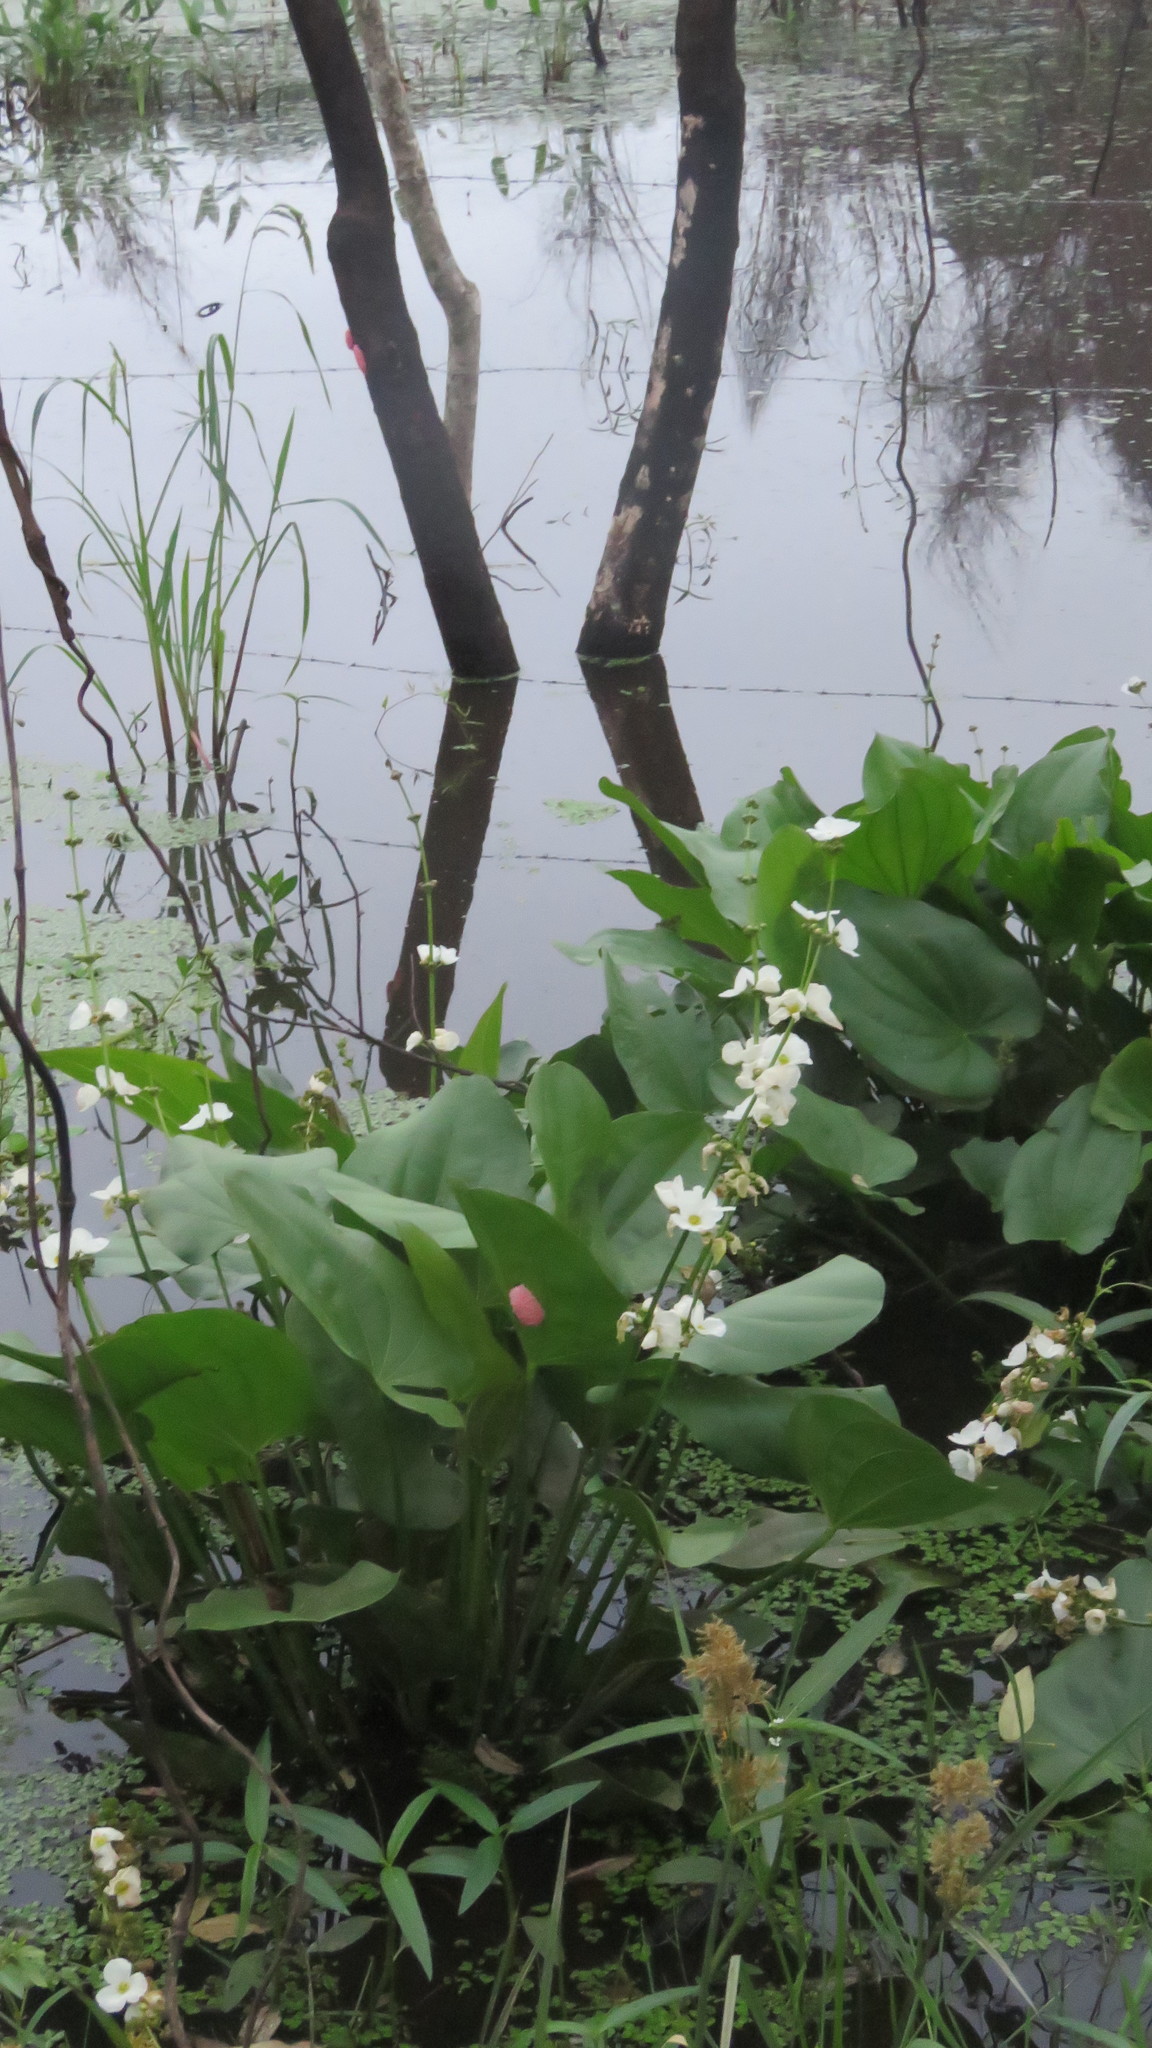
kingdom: Plantae
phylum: Tracheophyta
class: Liliopsida
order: Alismatales
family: Alismataceae
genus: Aquarius
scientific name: Aquarius grandiflorus
